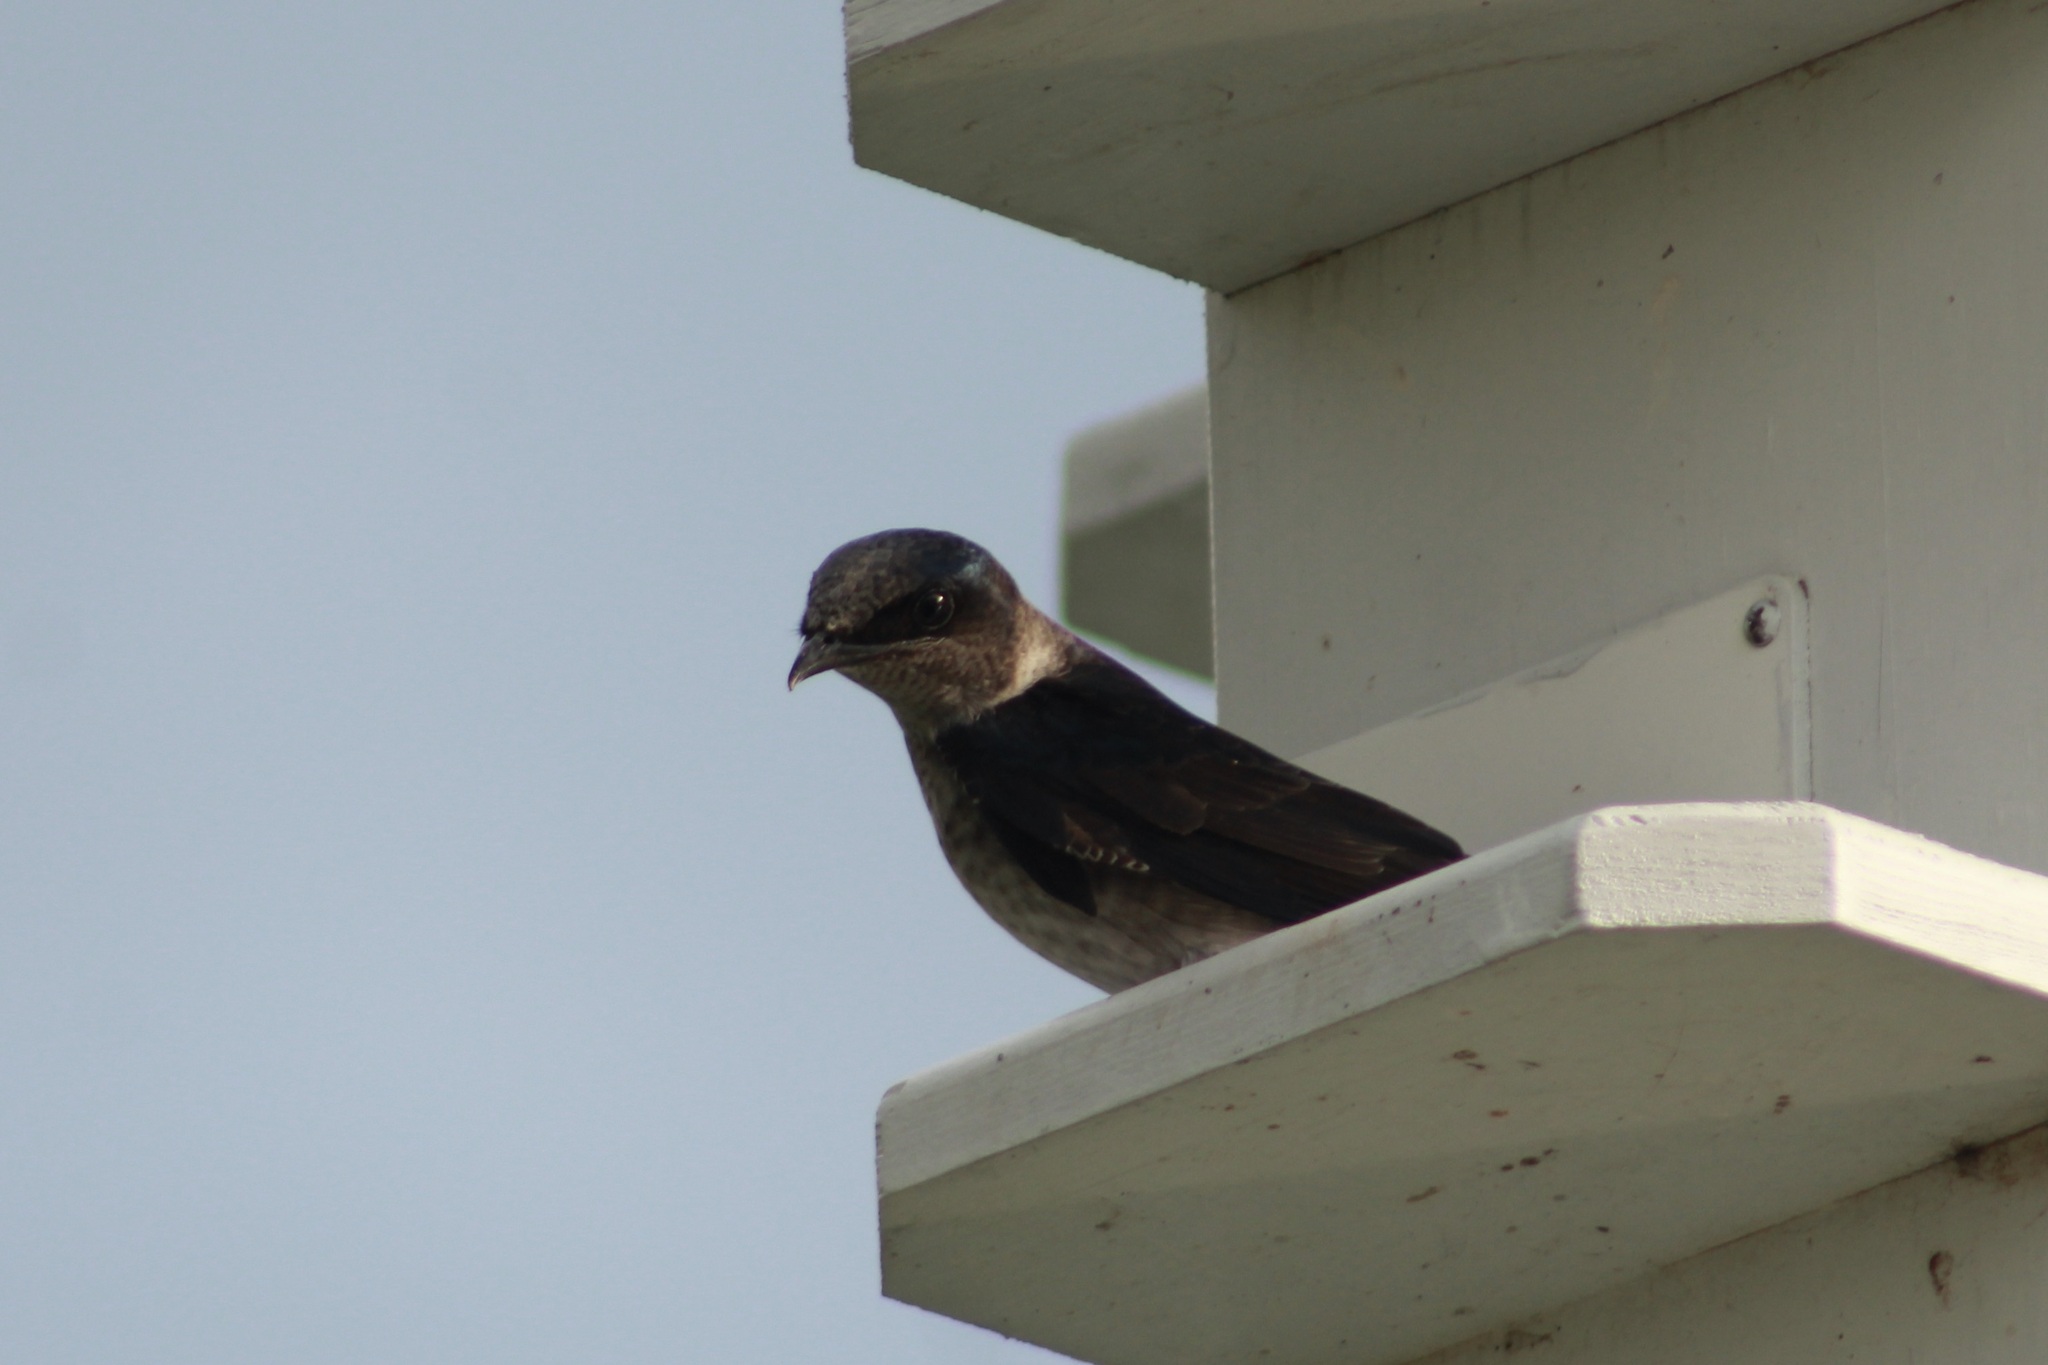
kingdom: Animalia
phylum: Chordata
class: Aves
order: Passeriformes
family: Hirundinidae
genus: Progne
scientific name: Progne subis
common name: Purple martin
